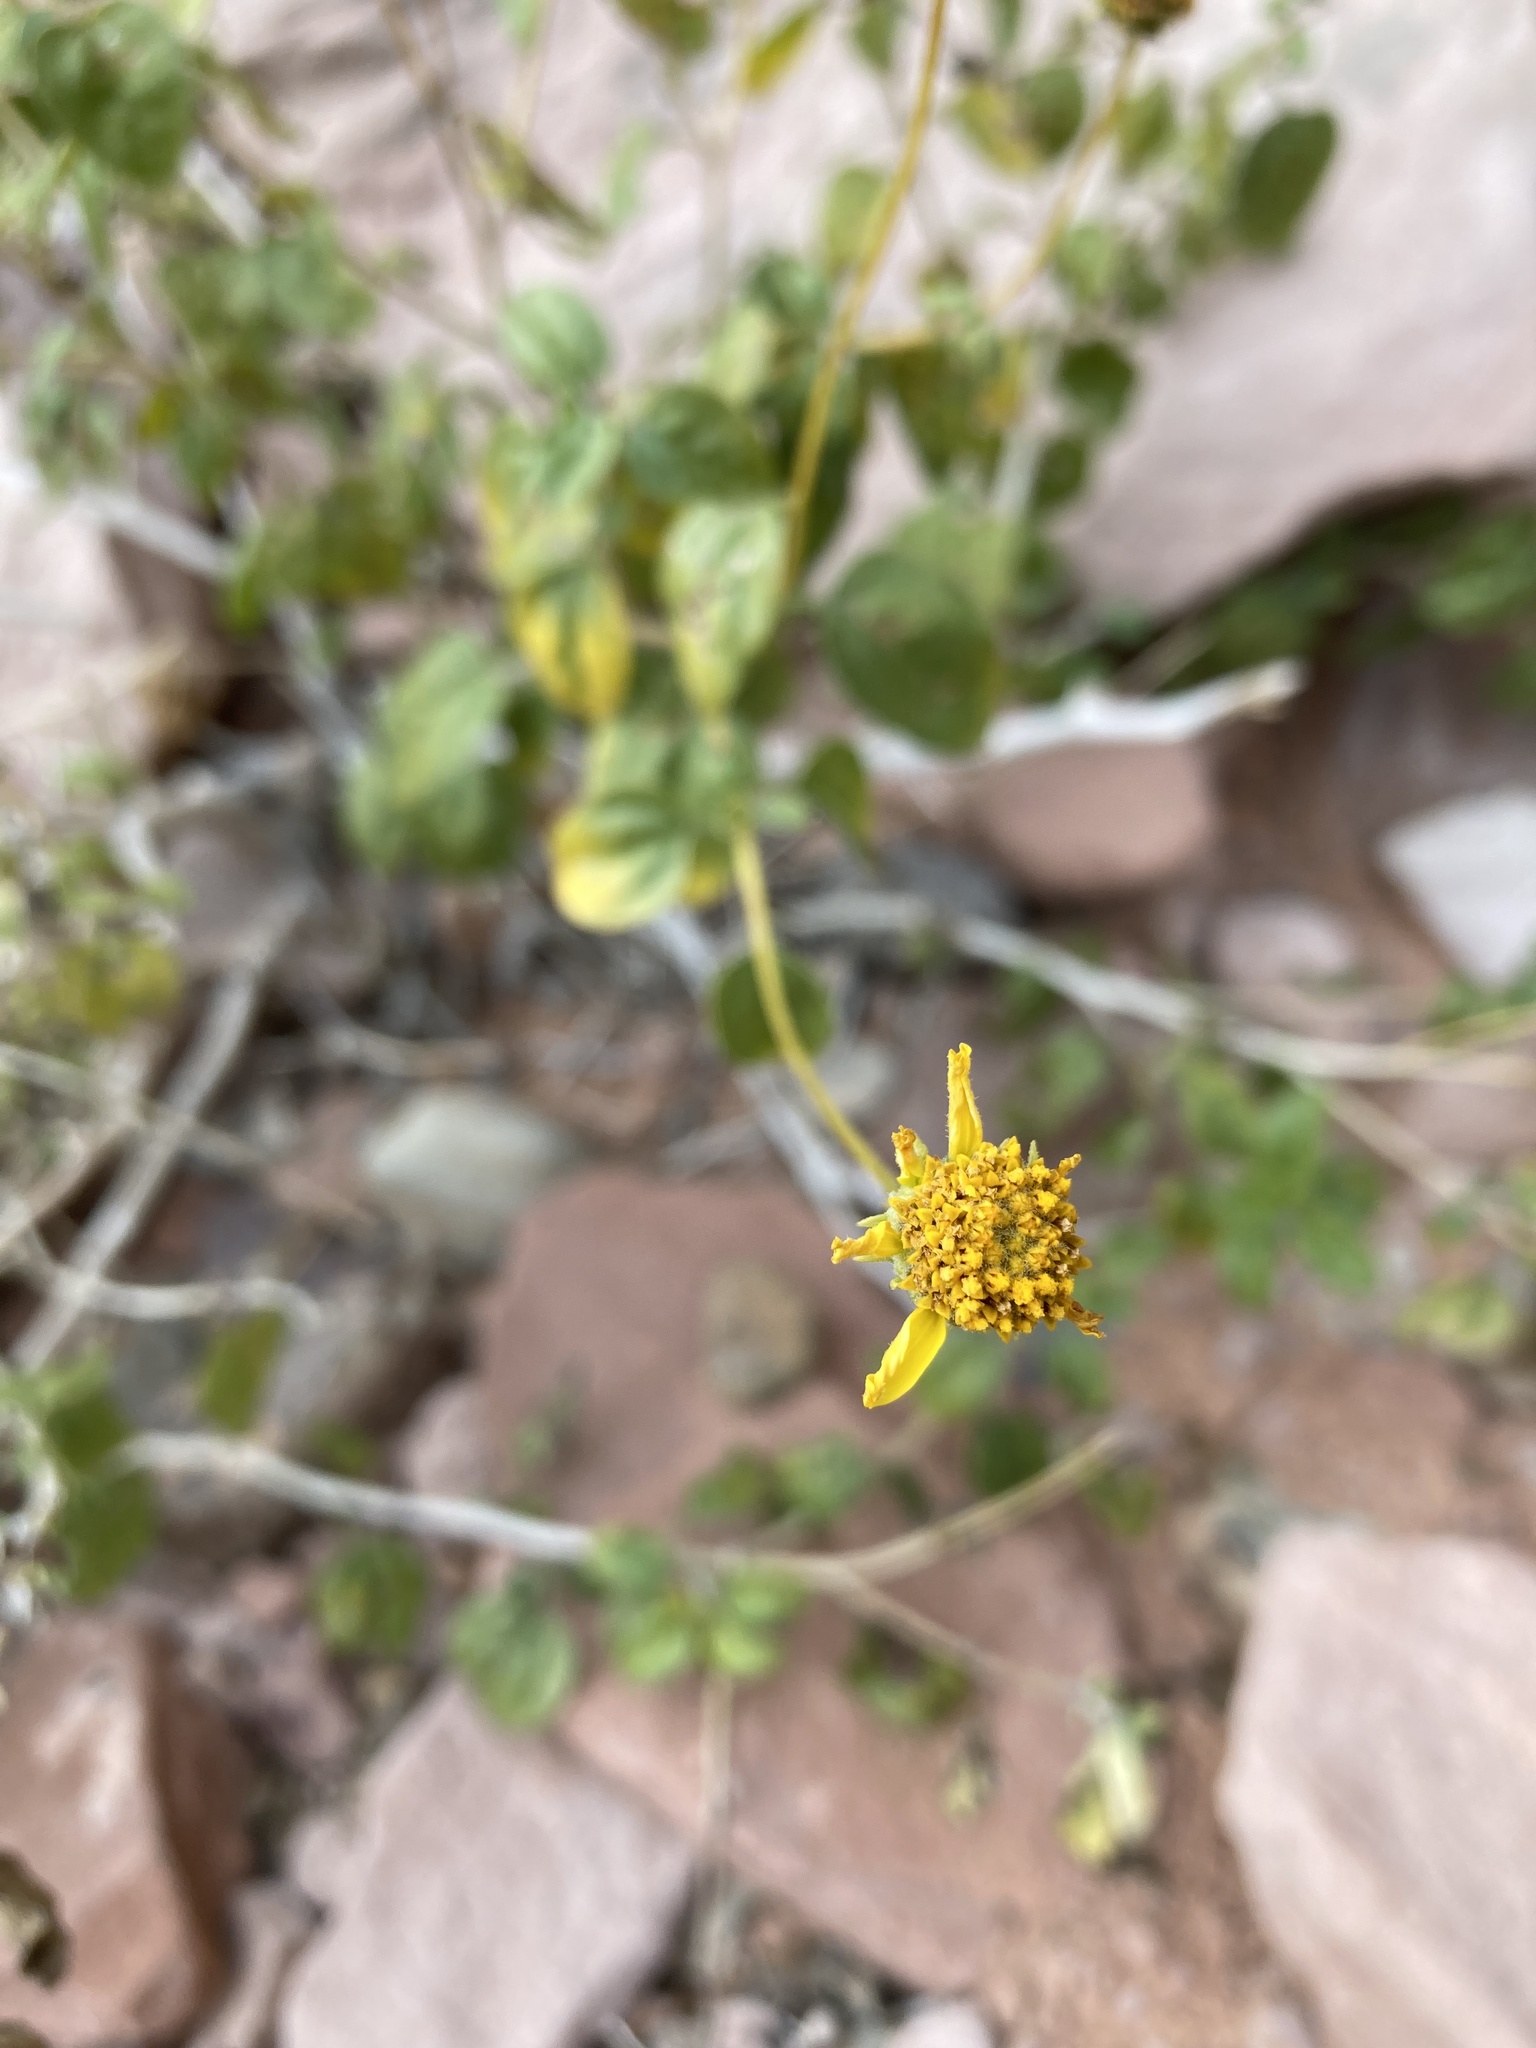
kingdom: Plantae
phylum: Tracheophyta
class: Magnoliopsida
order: Asterales
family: Asteraceae
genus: Encelia
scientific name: Encelia resinifera
